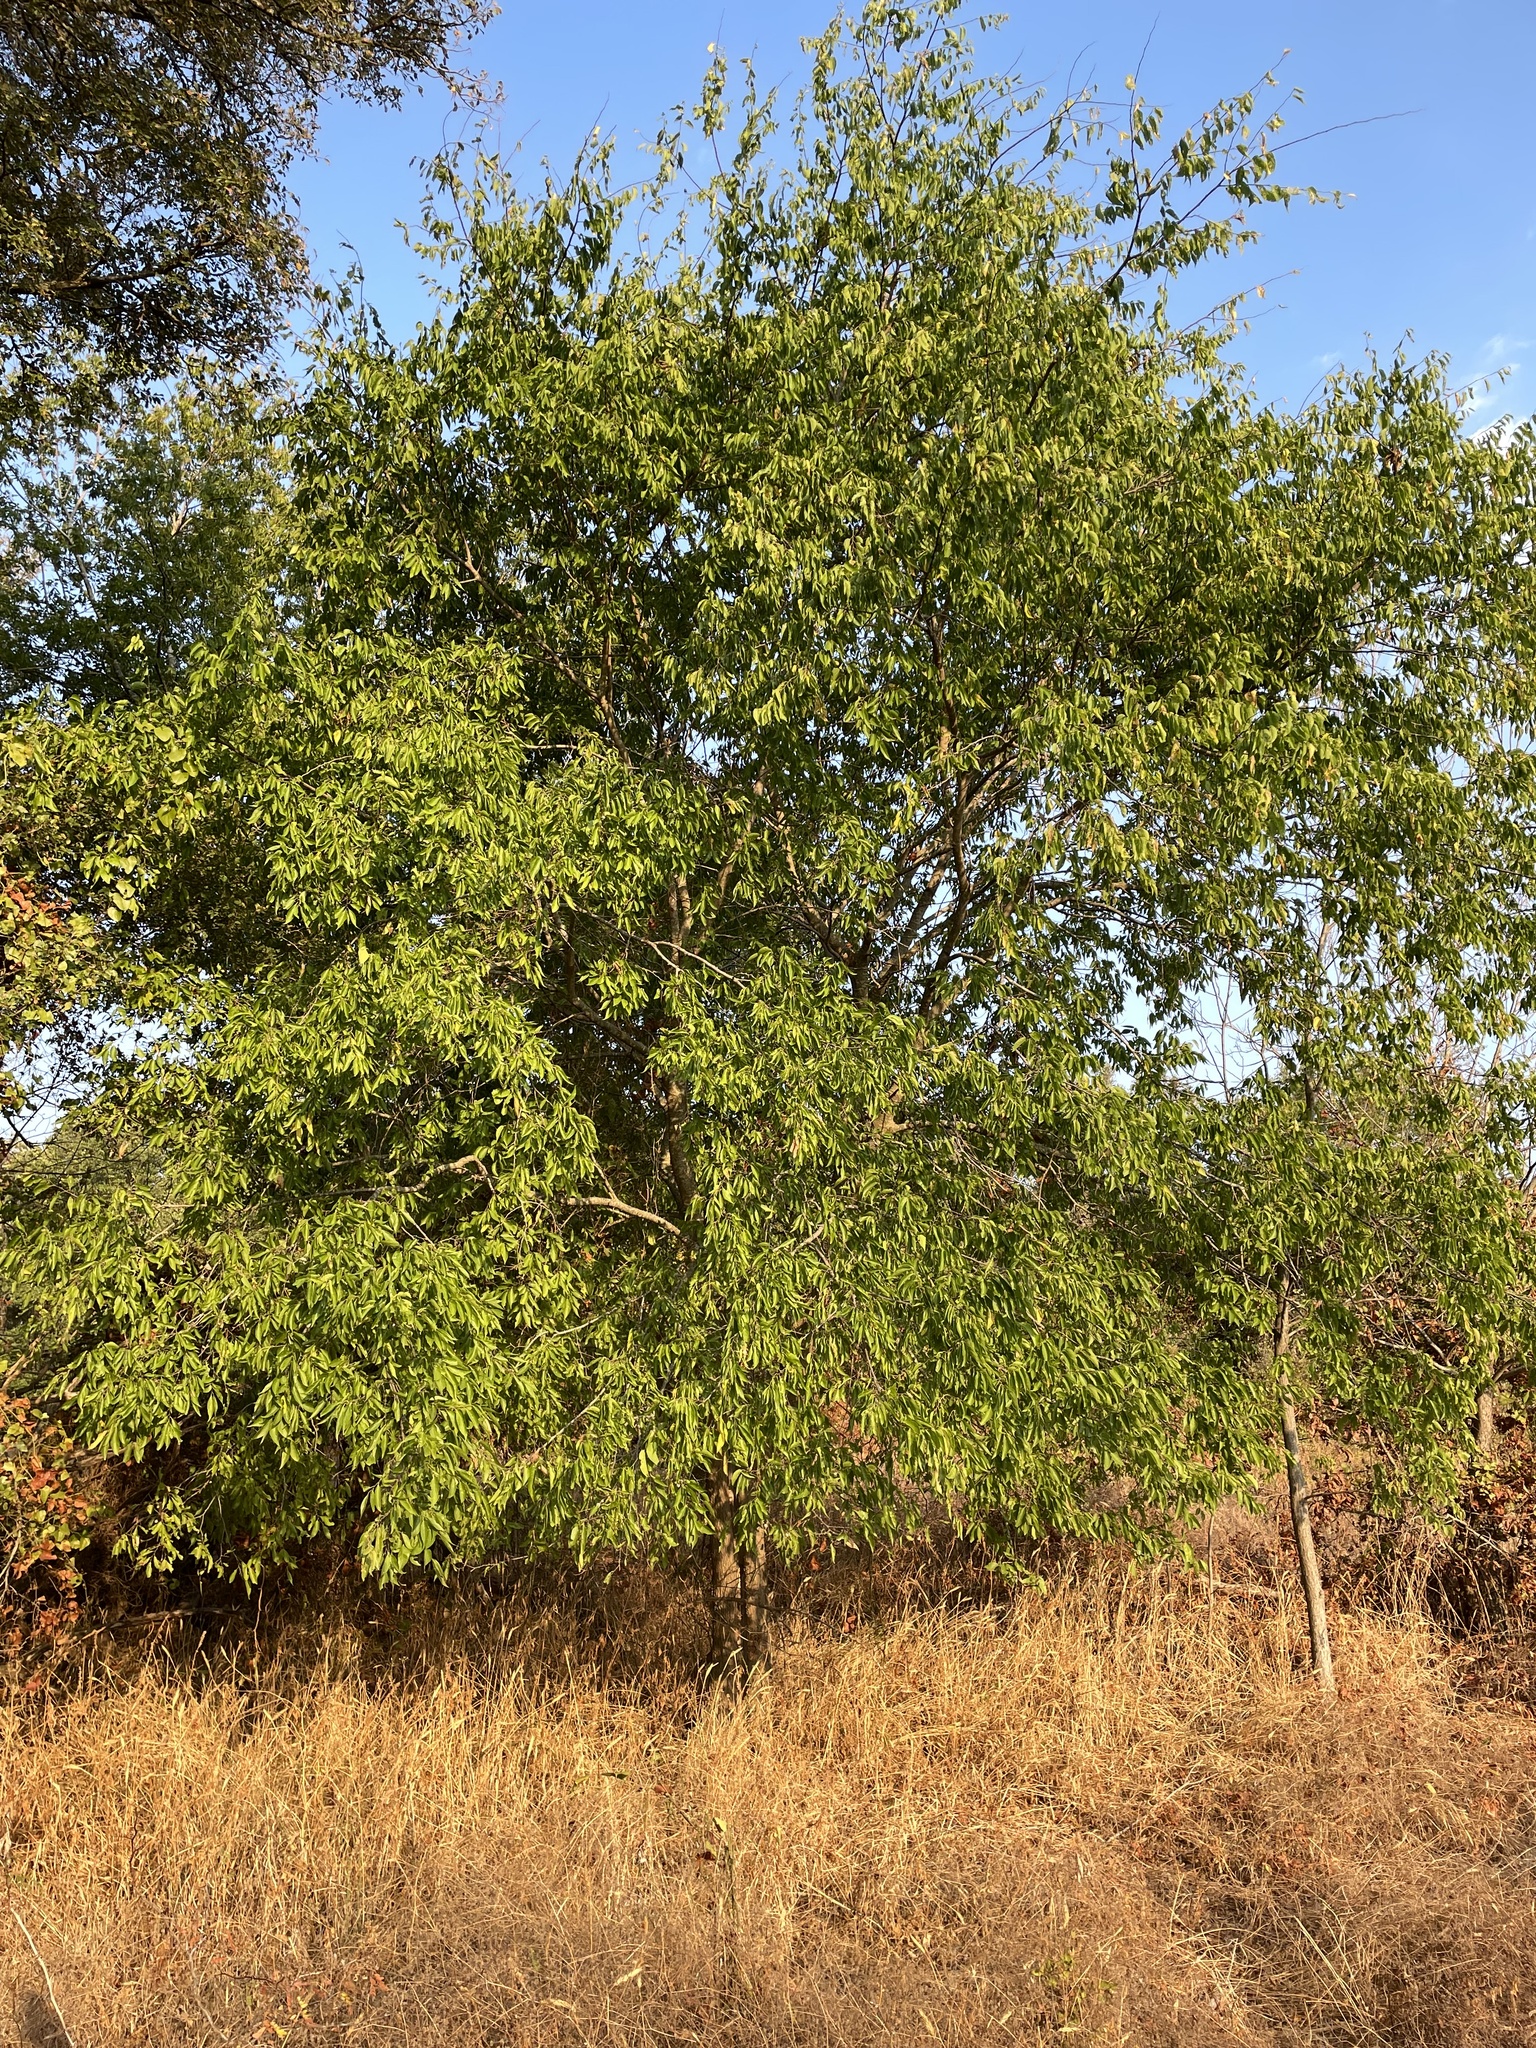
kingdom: Plantae
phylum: Tracheophyta
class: Magnoliopsida
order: Rosales
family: Cannabaceae
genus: Celtis
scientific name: Celtis laevigata
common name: Sugarberry
